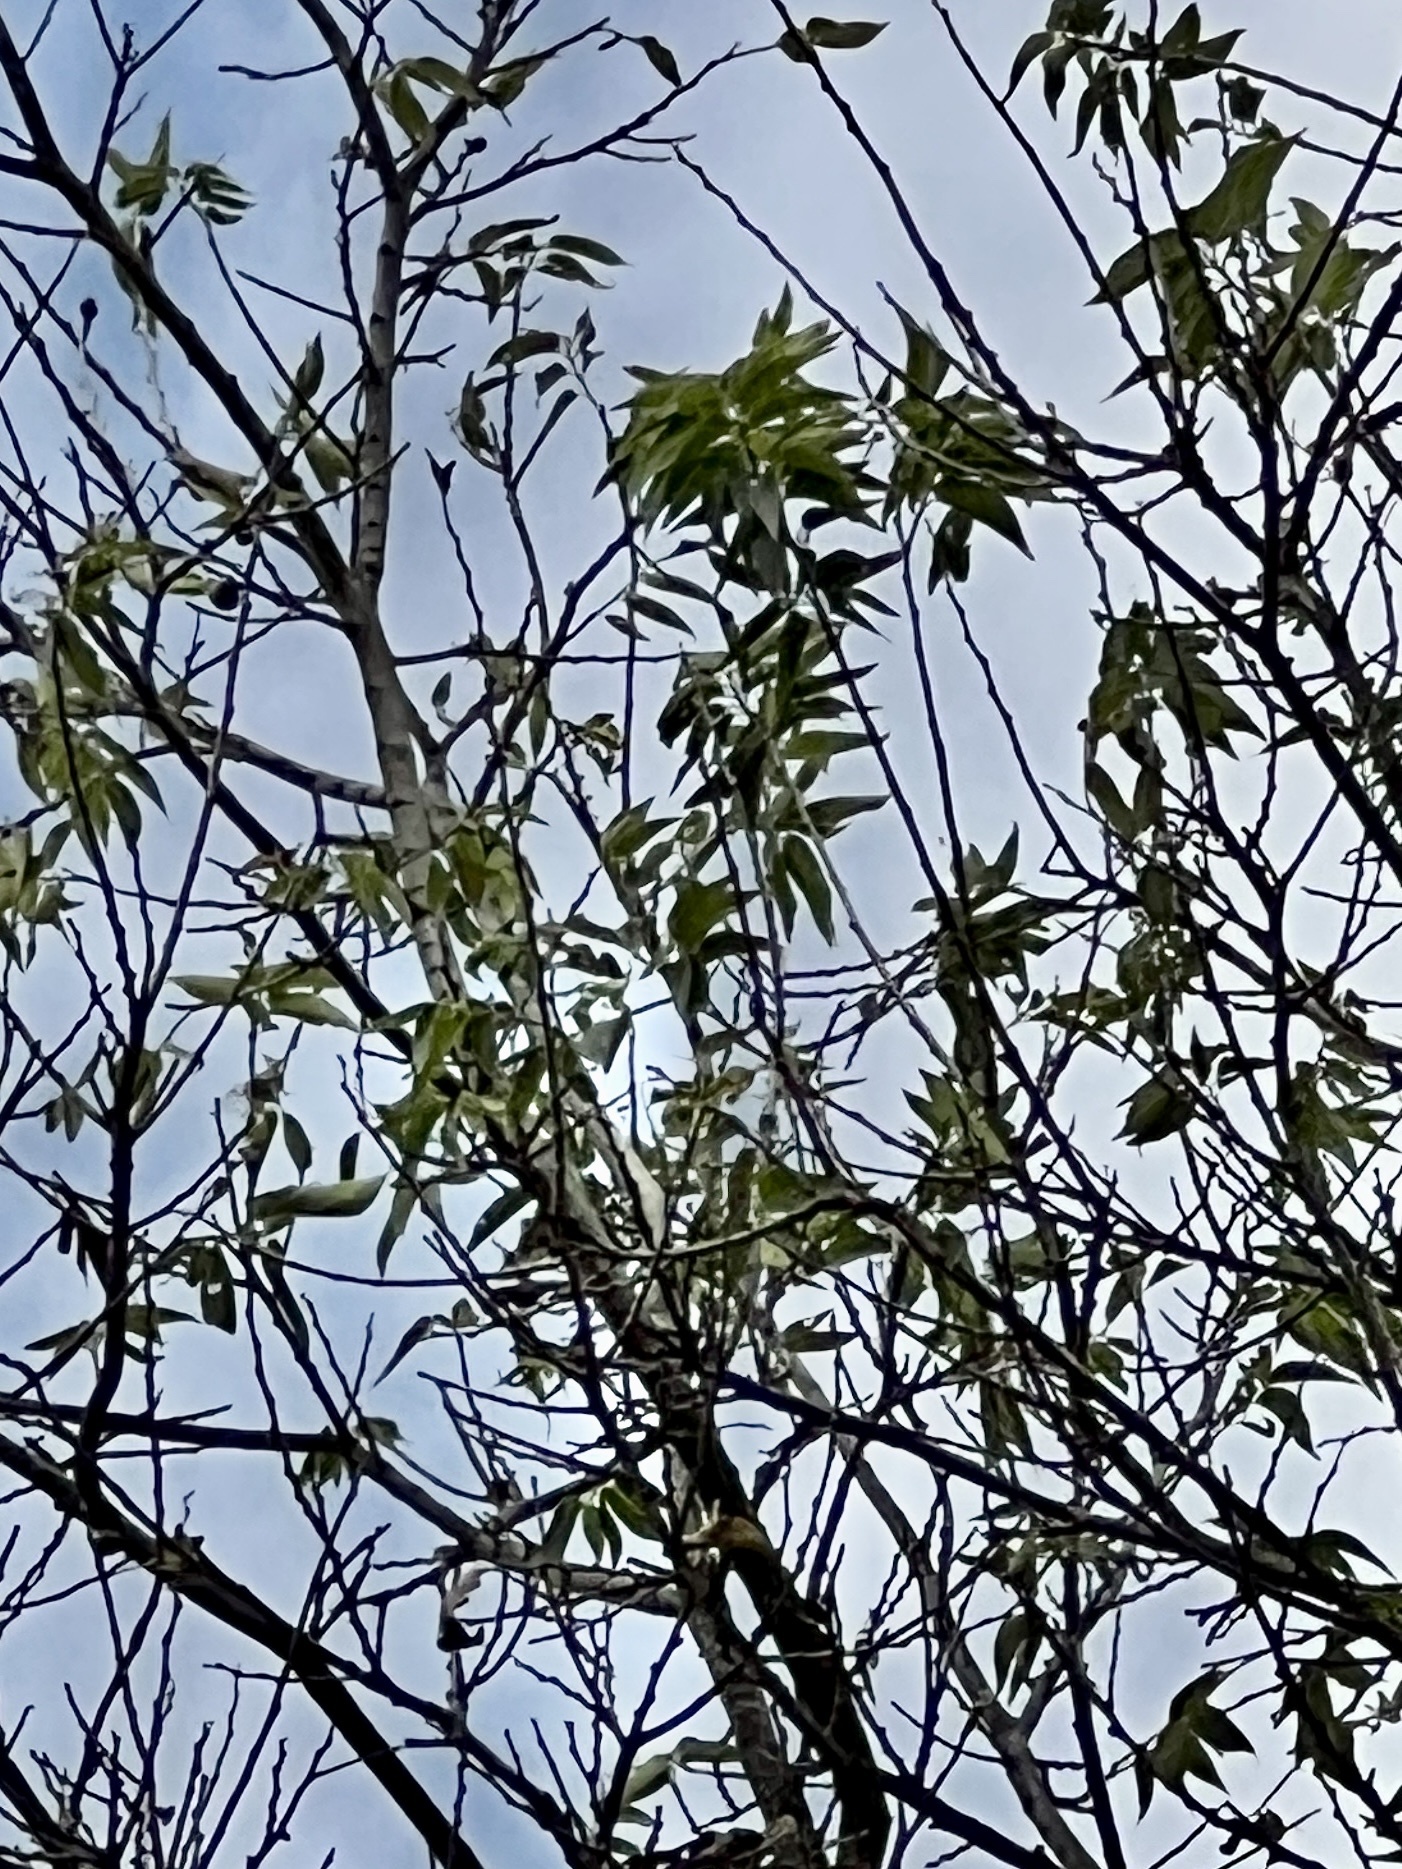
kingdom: Plantae
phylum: Tracheophyta
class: Magnoliopsida
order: Rosales
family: Cannabaceae
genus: Celtis
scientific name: Celtis laevigata
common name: Sugarberry
